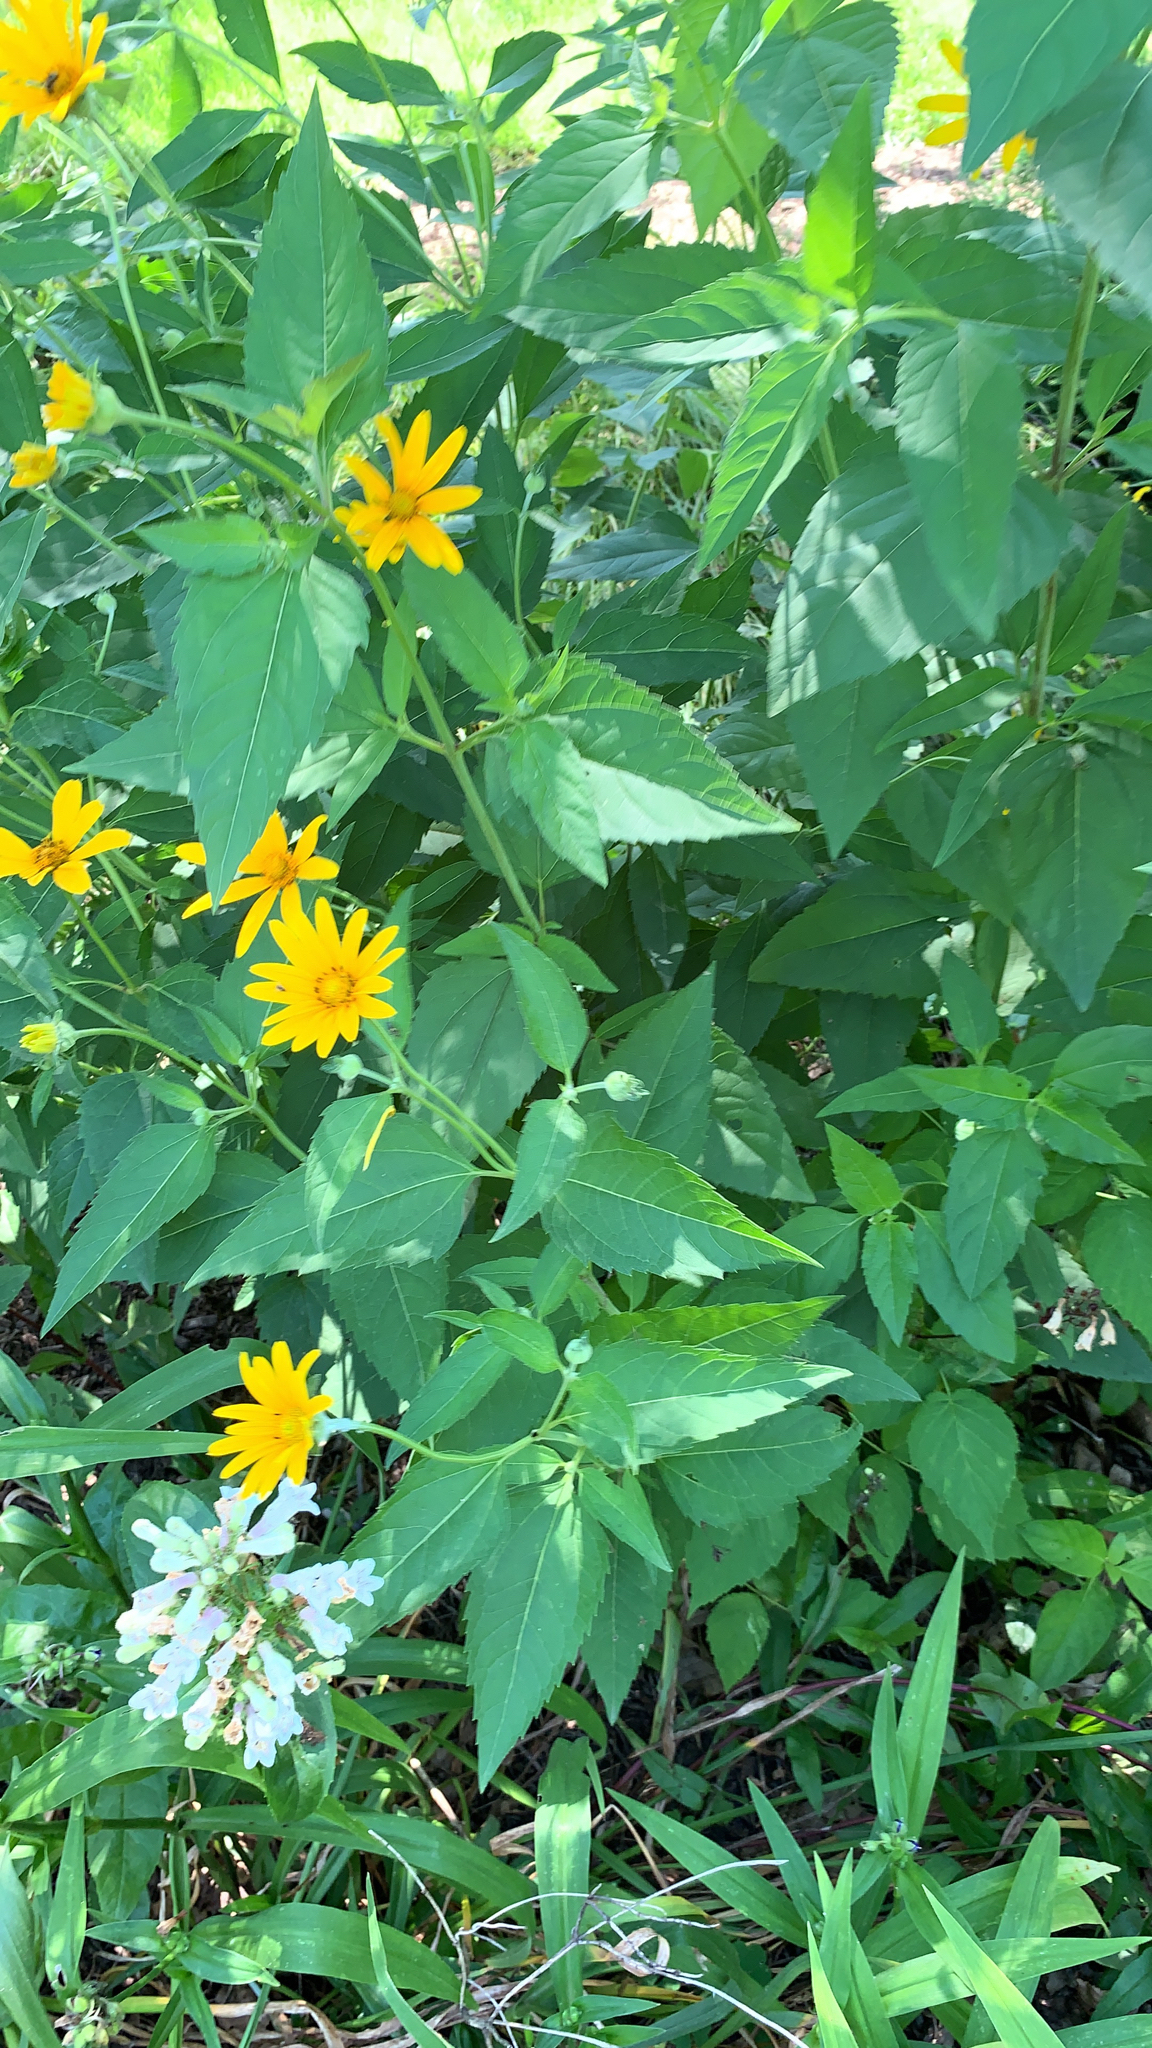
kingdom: Plantae
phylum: Tracheophyta
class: Magnoliopsida
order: Asterales
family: Asteraceae
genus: Heliopsis
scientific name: Heliopsis helianthoides
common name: False sunflower
